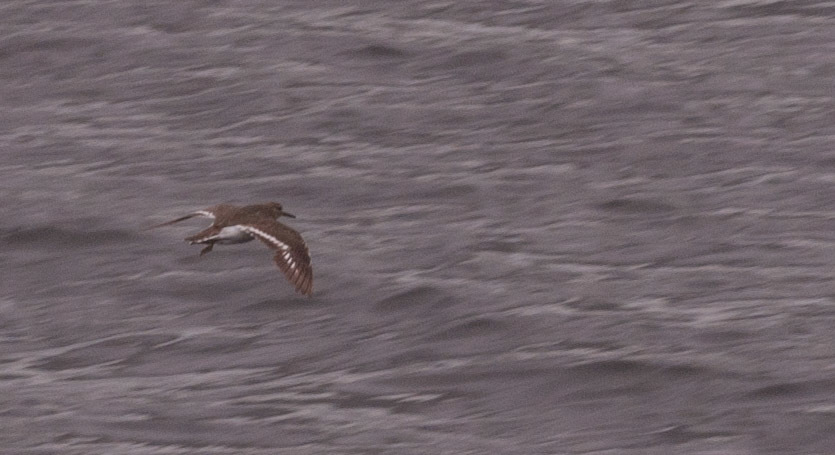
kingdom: Animalia
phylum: Chordata
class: Aves
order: Charadriiformes
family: Scolopacidae
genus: Actitis
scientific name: Actitis hypoleucos
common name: Common sandpiper
